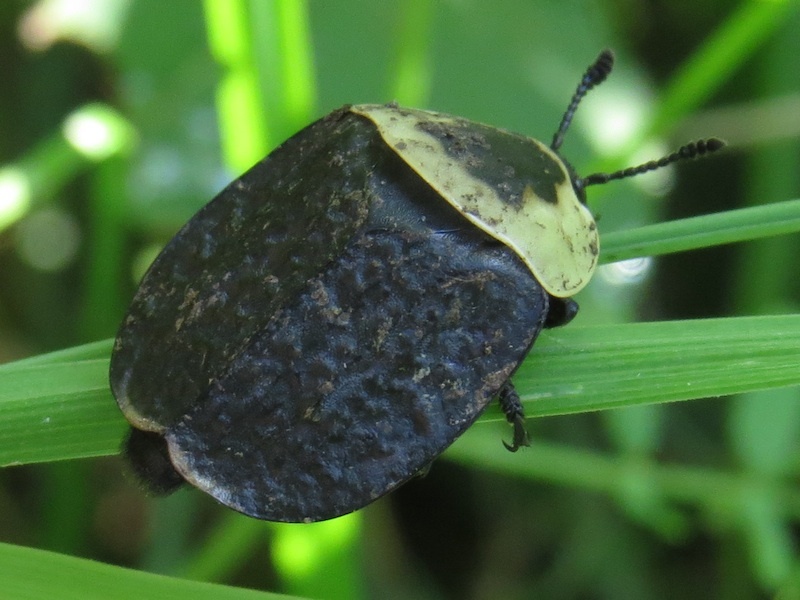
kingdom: Animalia
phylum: Arthropoda
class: Insecta
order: Coleoptera
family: Staphylinidae
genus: Necrophila
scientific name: Necrophila americana
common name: American carrion beetle
